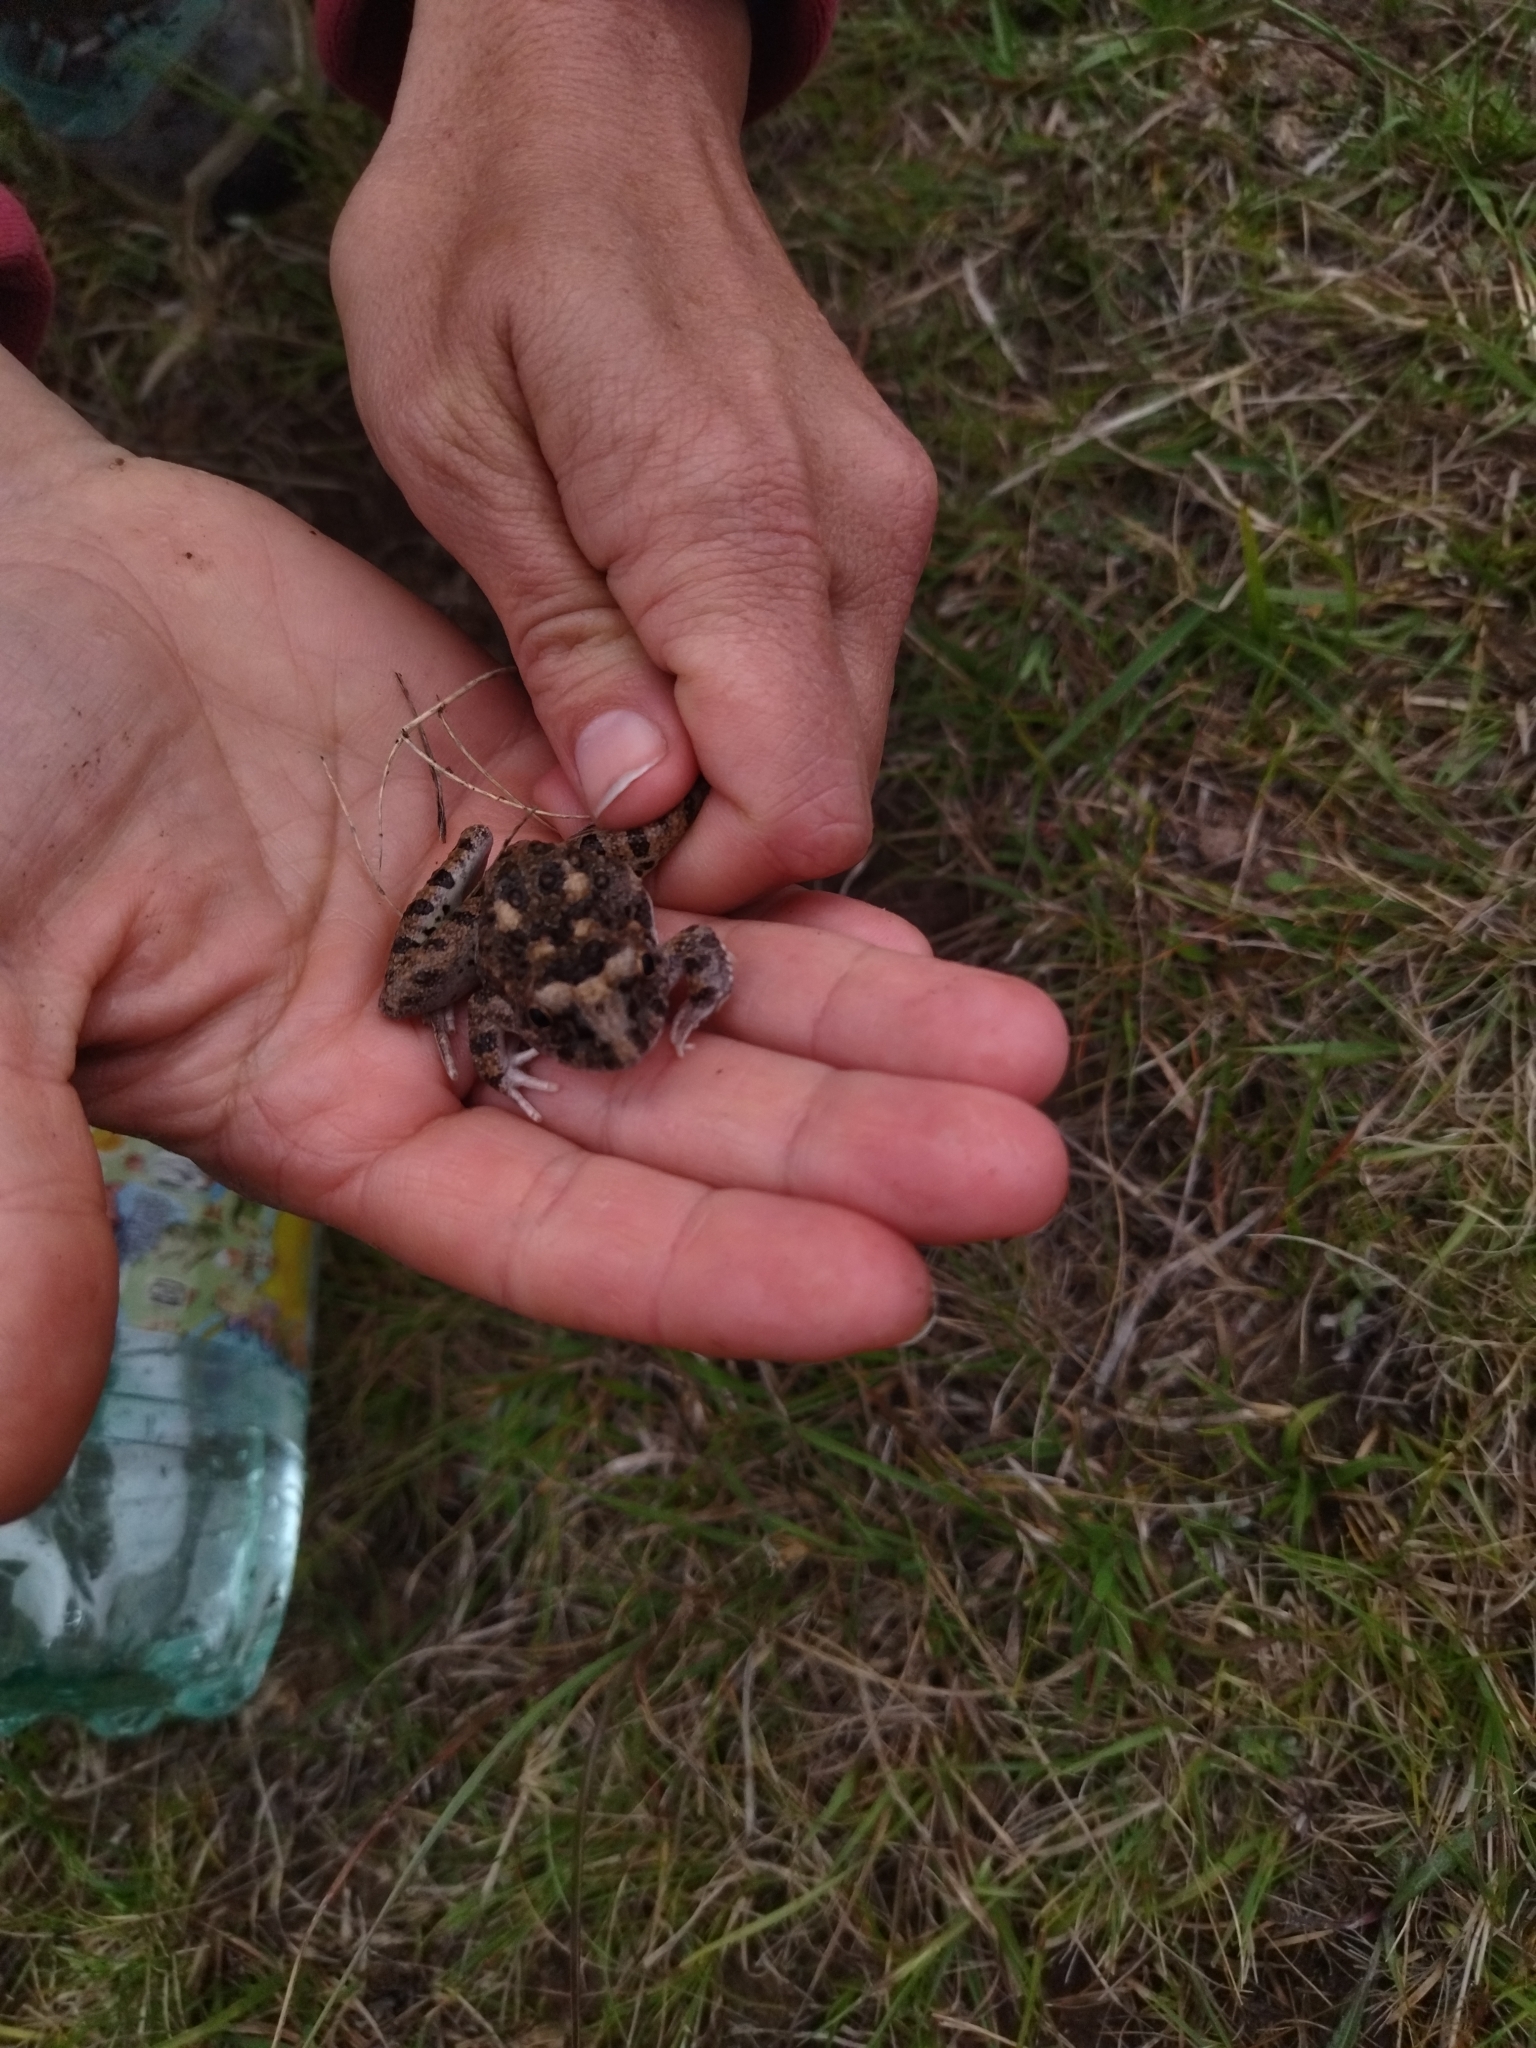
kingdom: Animalia
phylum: Chordata
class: Amphibia
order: Anura
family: Alsodidae
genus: Limnomedusa
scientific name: Limnomedusa macroglossa
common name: Rapids frog
